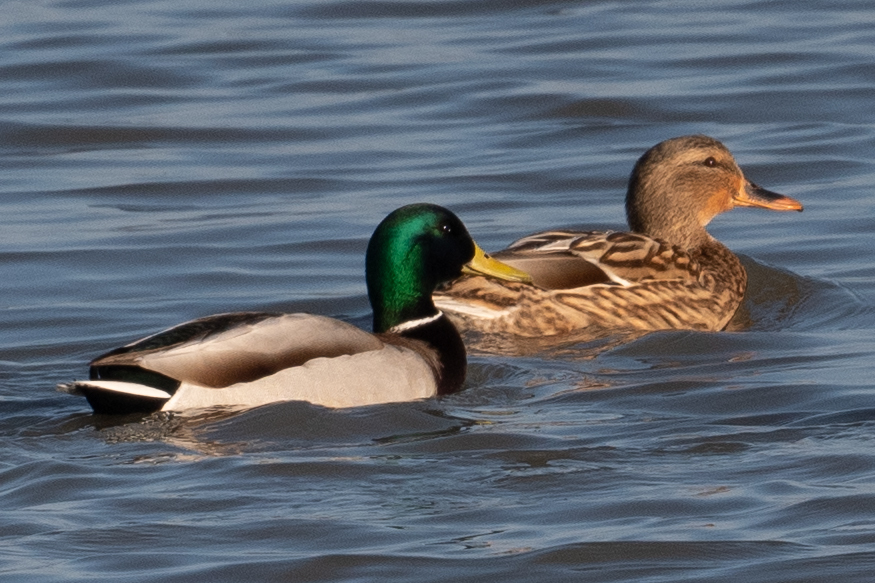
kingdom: Animalia
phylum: Chordata
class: Aves
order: Anseriformes
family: Anatidae
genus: Anas
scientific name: Anas platyrhynchos
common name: Mallard
